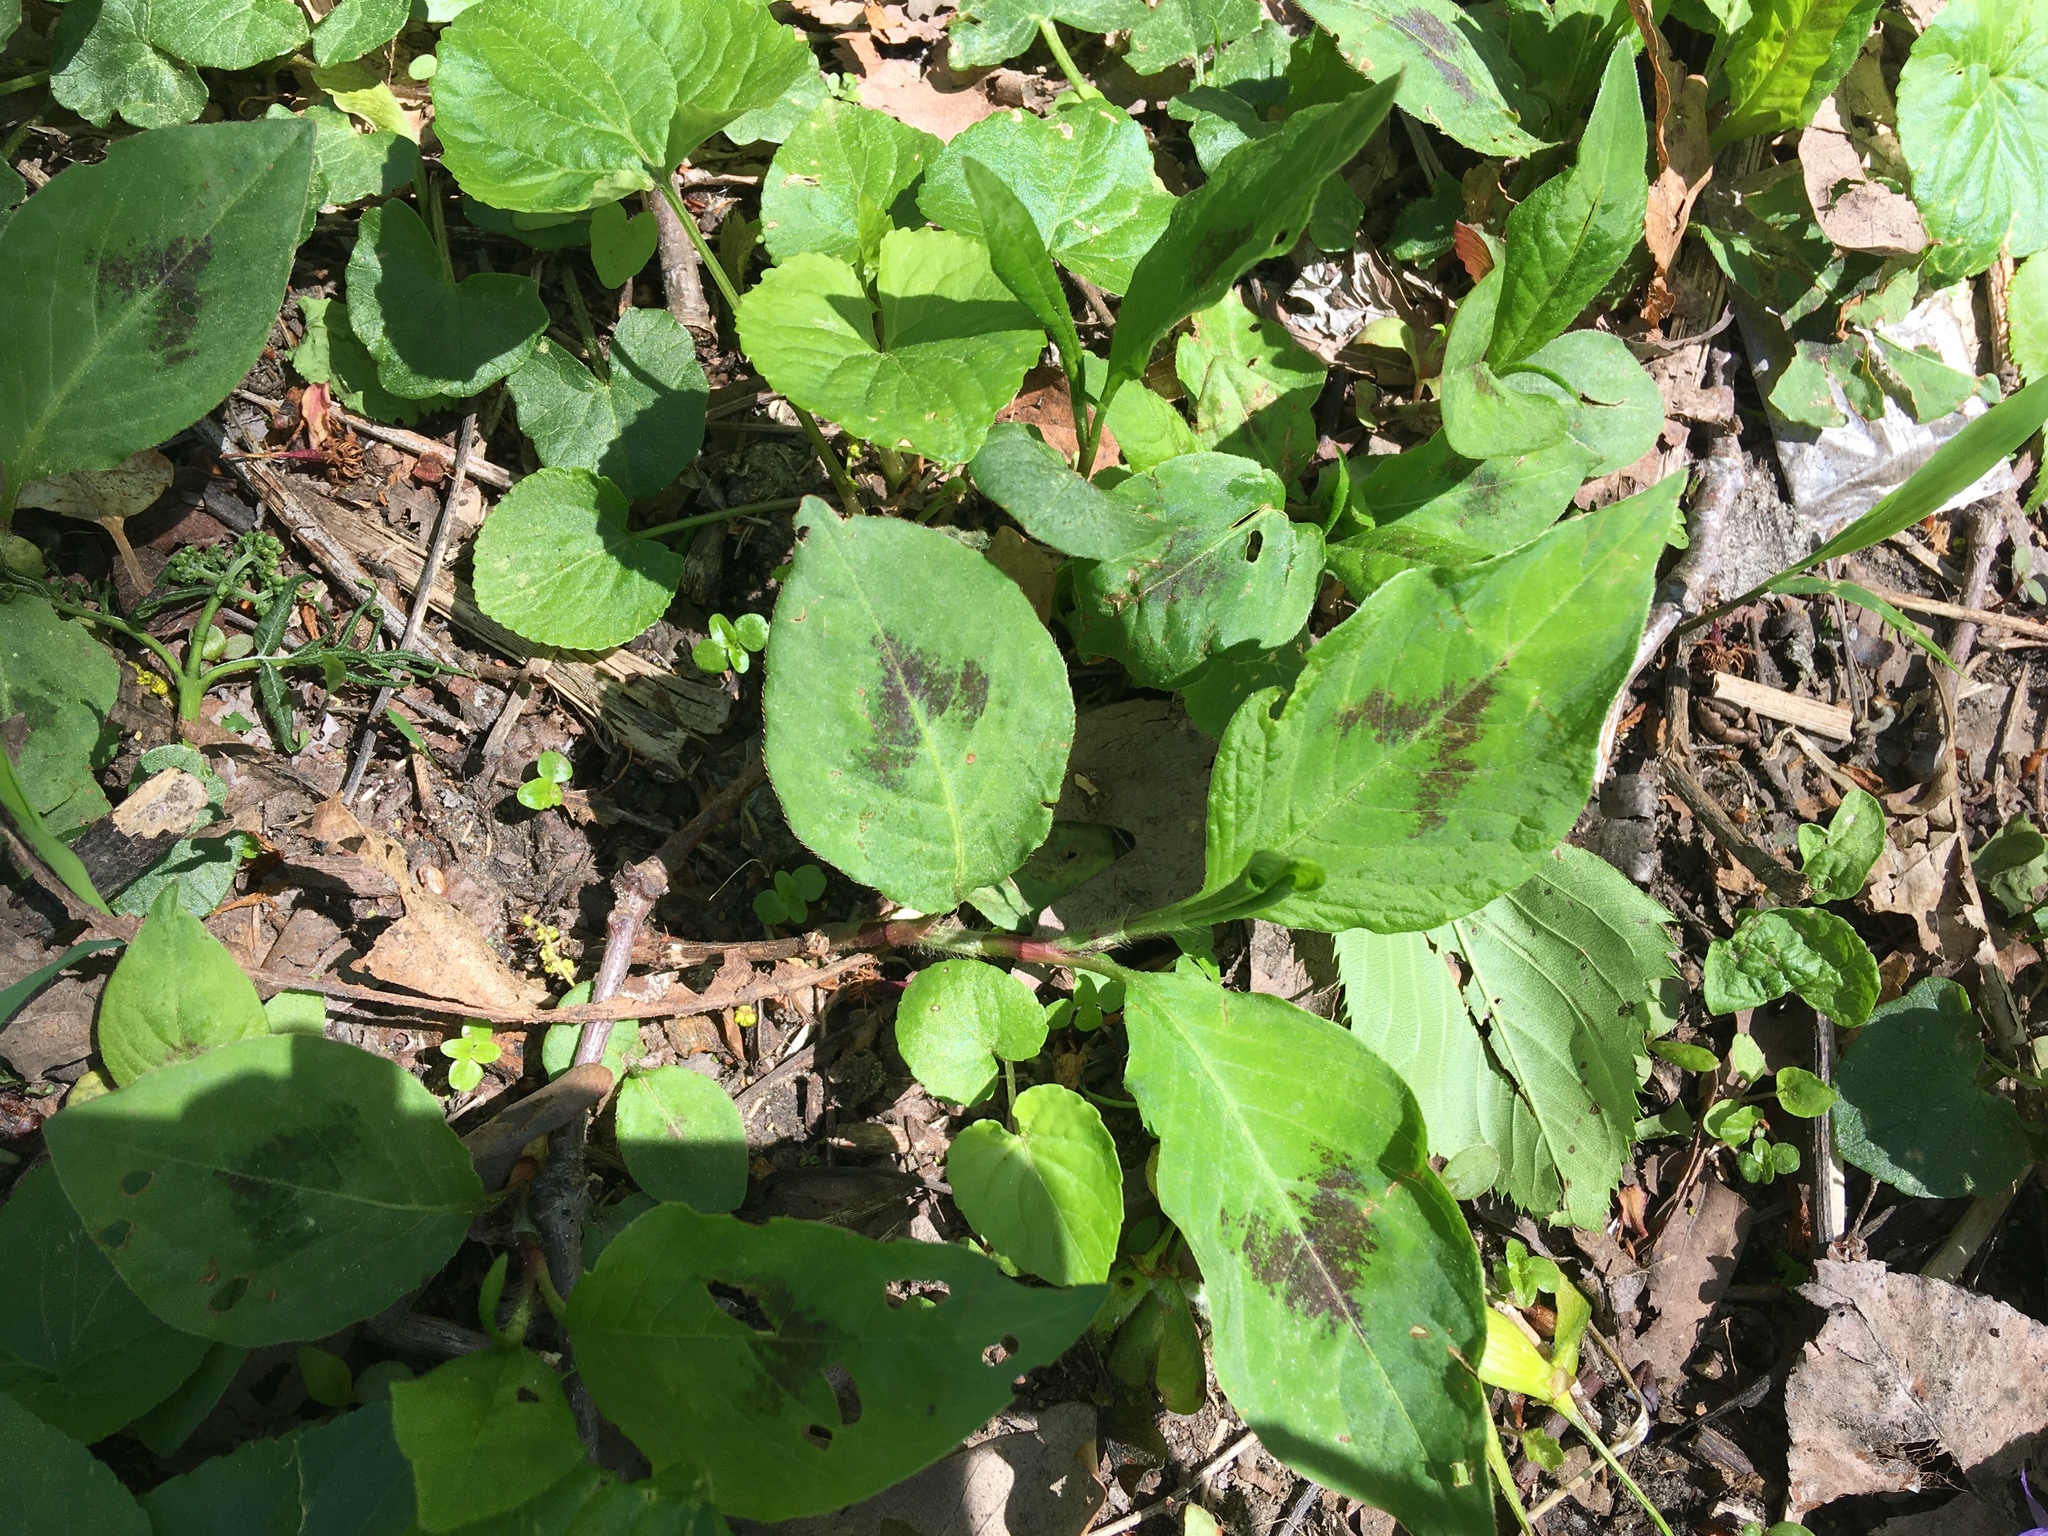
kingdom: Plantae
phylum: Tracheophyta
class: Magnoliopsida
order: Caryophyllales
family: Polygonaceae
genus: Persicaria
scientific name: Persicaria virginiana
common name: Jumpseed
